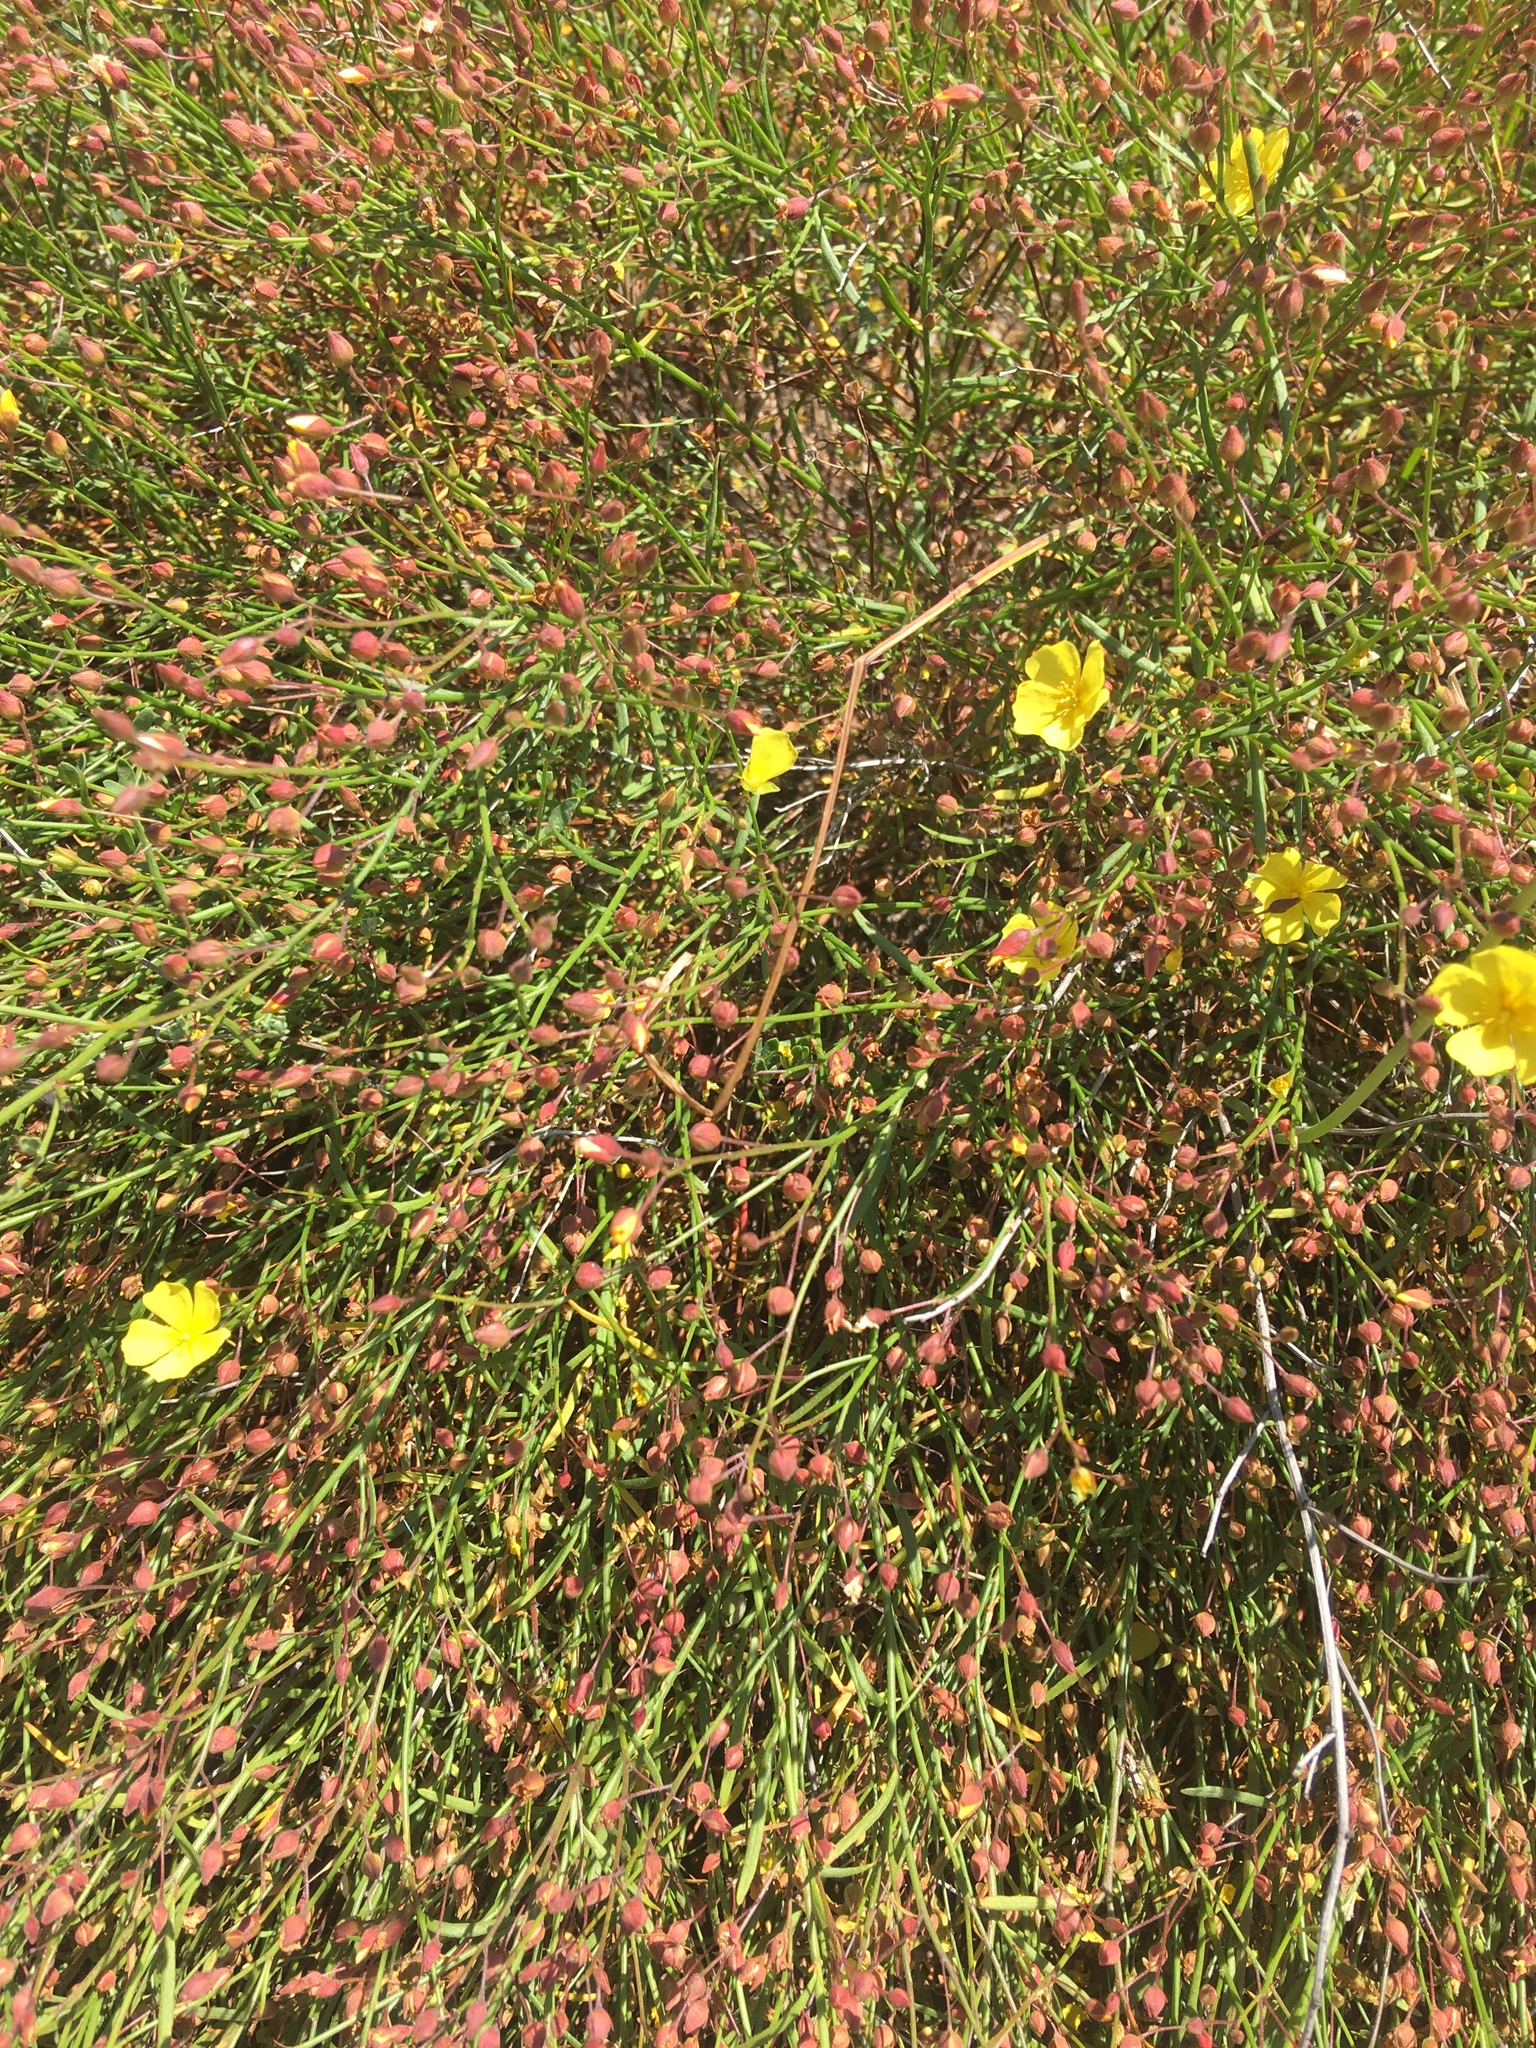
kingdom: Plantae
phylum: Tracheophyta
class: Magnoliopsida
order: Malvales
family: Cistaceae
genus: Crocanthemum
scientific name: Crocanthemum scoparium
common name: Broom-rose
